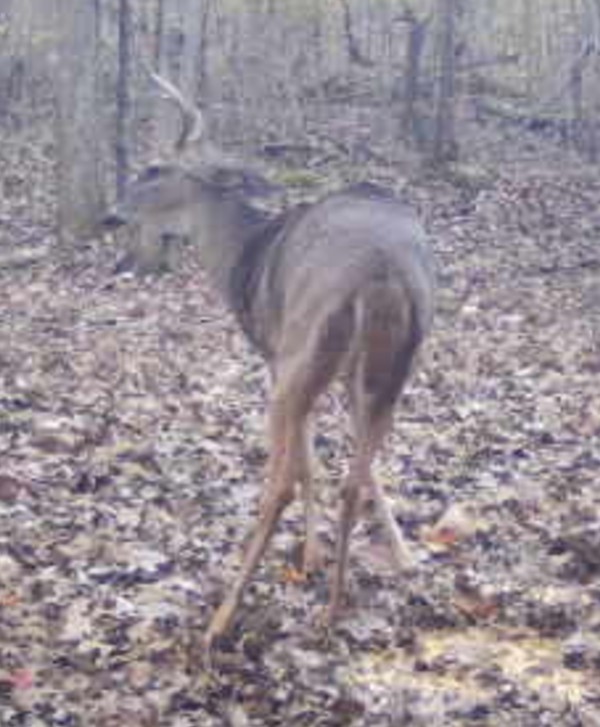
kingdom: Animalia
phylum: Chordata
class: Mammalia
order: Artiodactyla
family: Cervidae
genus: Odocoileus
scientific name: Odocoileus virginianus
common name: White-tailed deer
